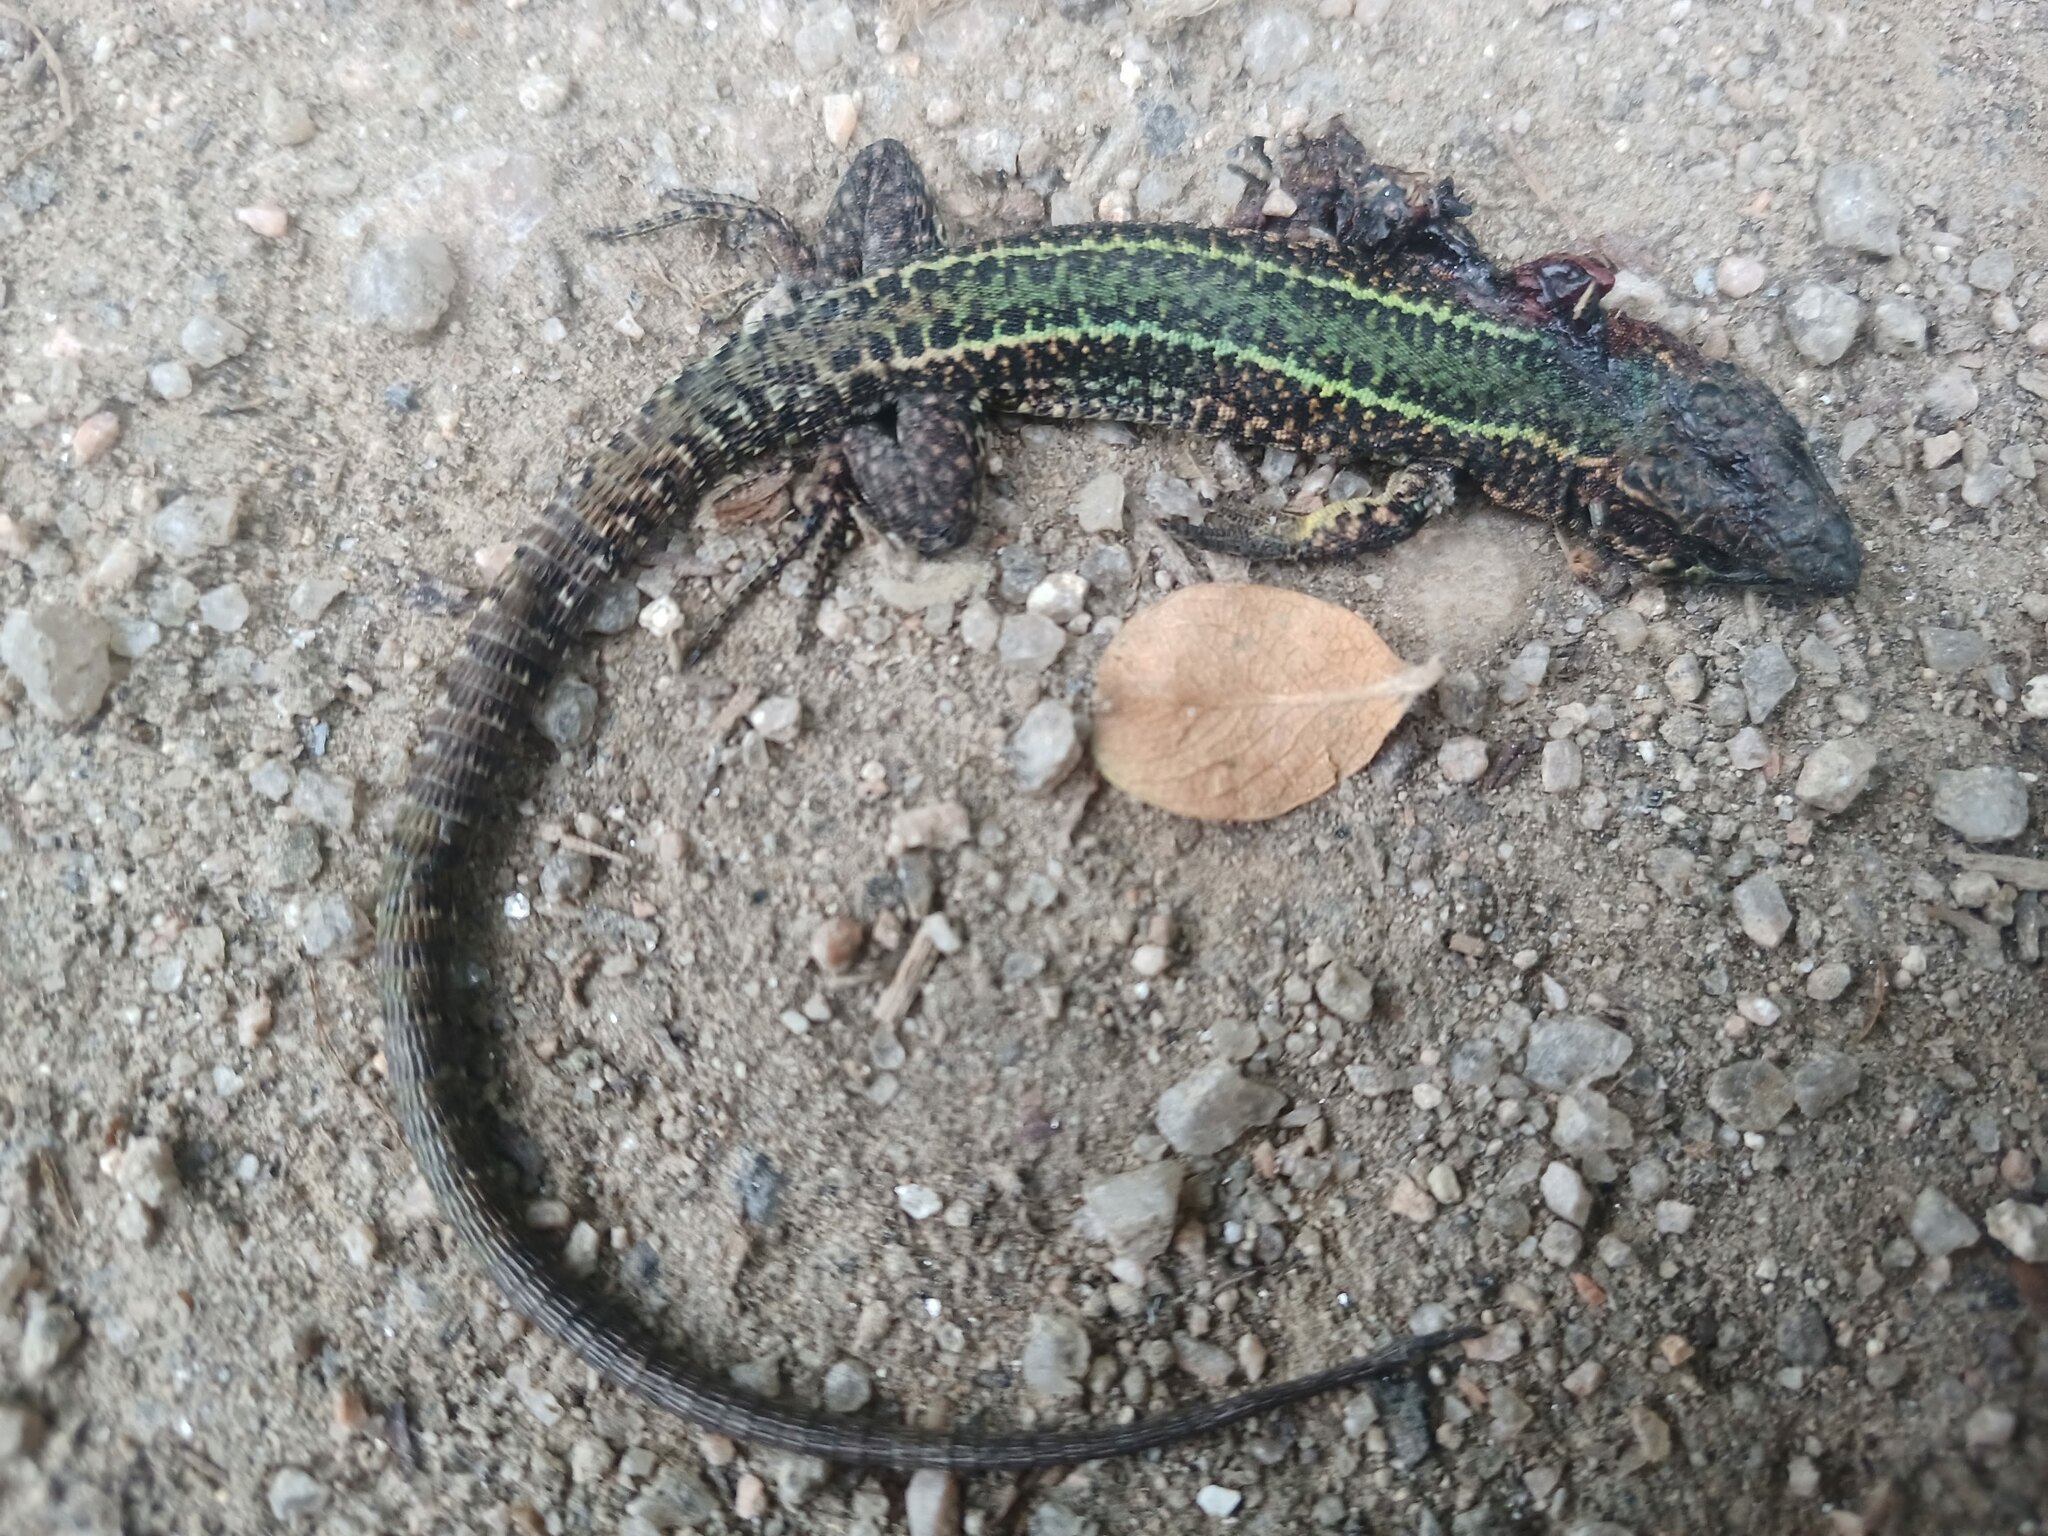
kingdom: Animalia
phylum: Chordata
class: Squamata
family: Lacertidae
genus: Podarcis
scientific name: Podarcis bocagei
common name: Bocage's wall lizard
